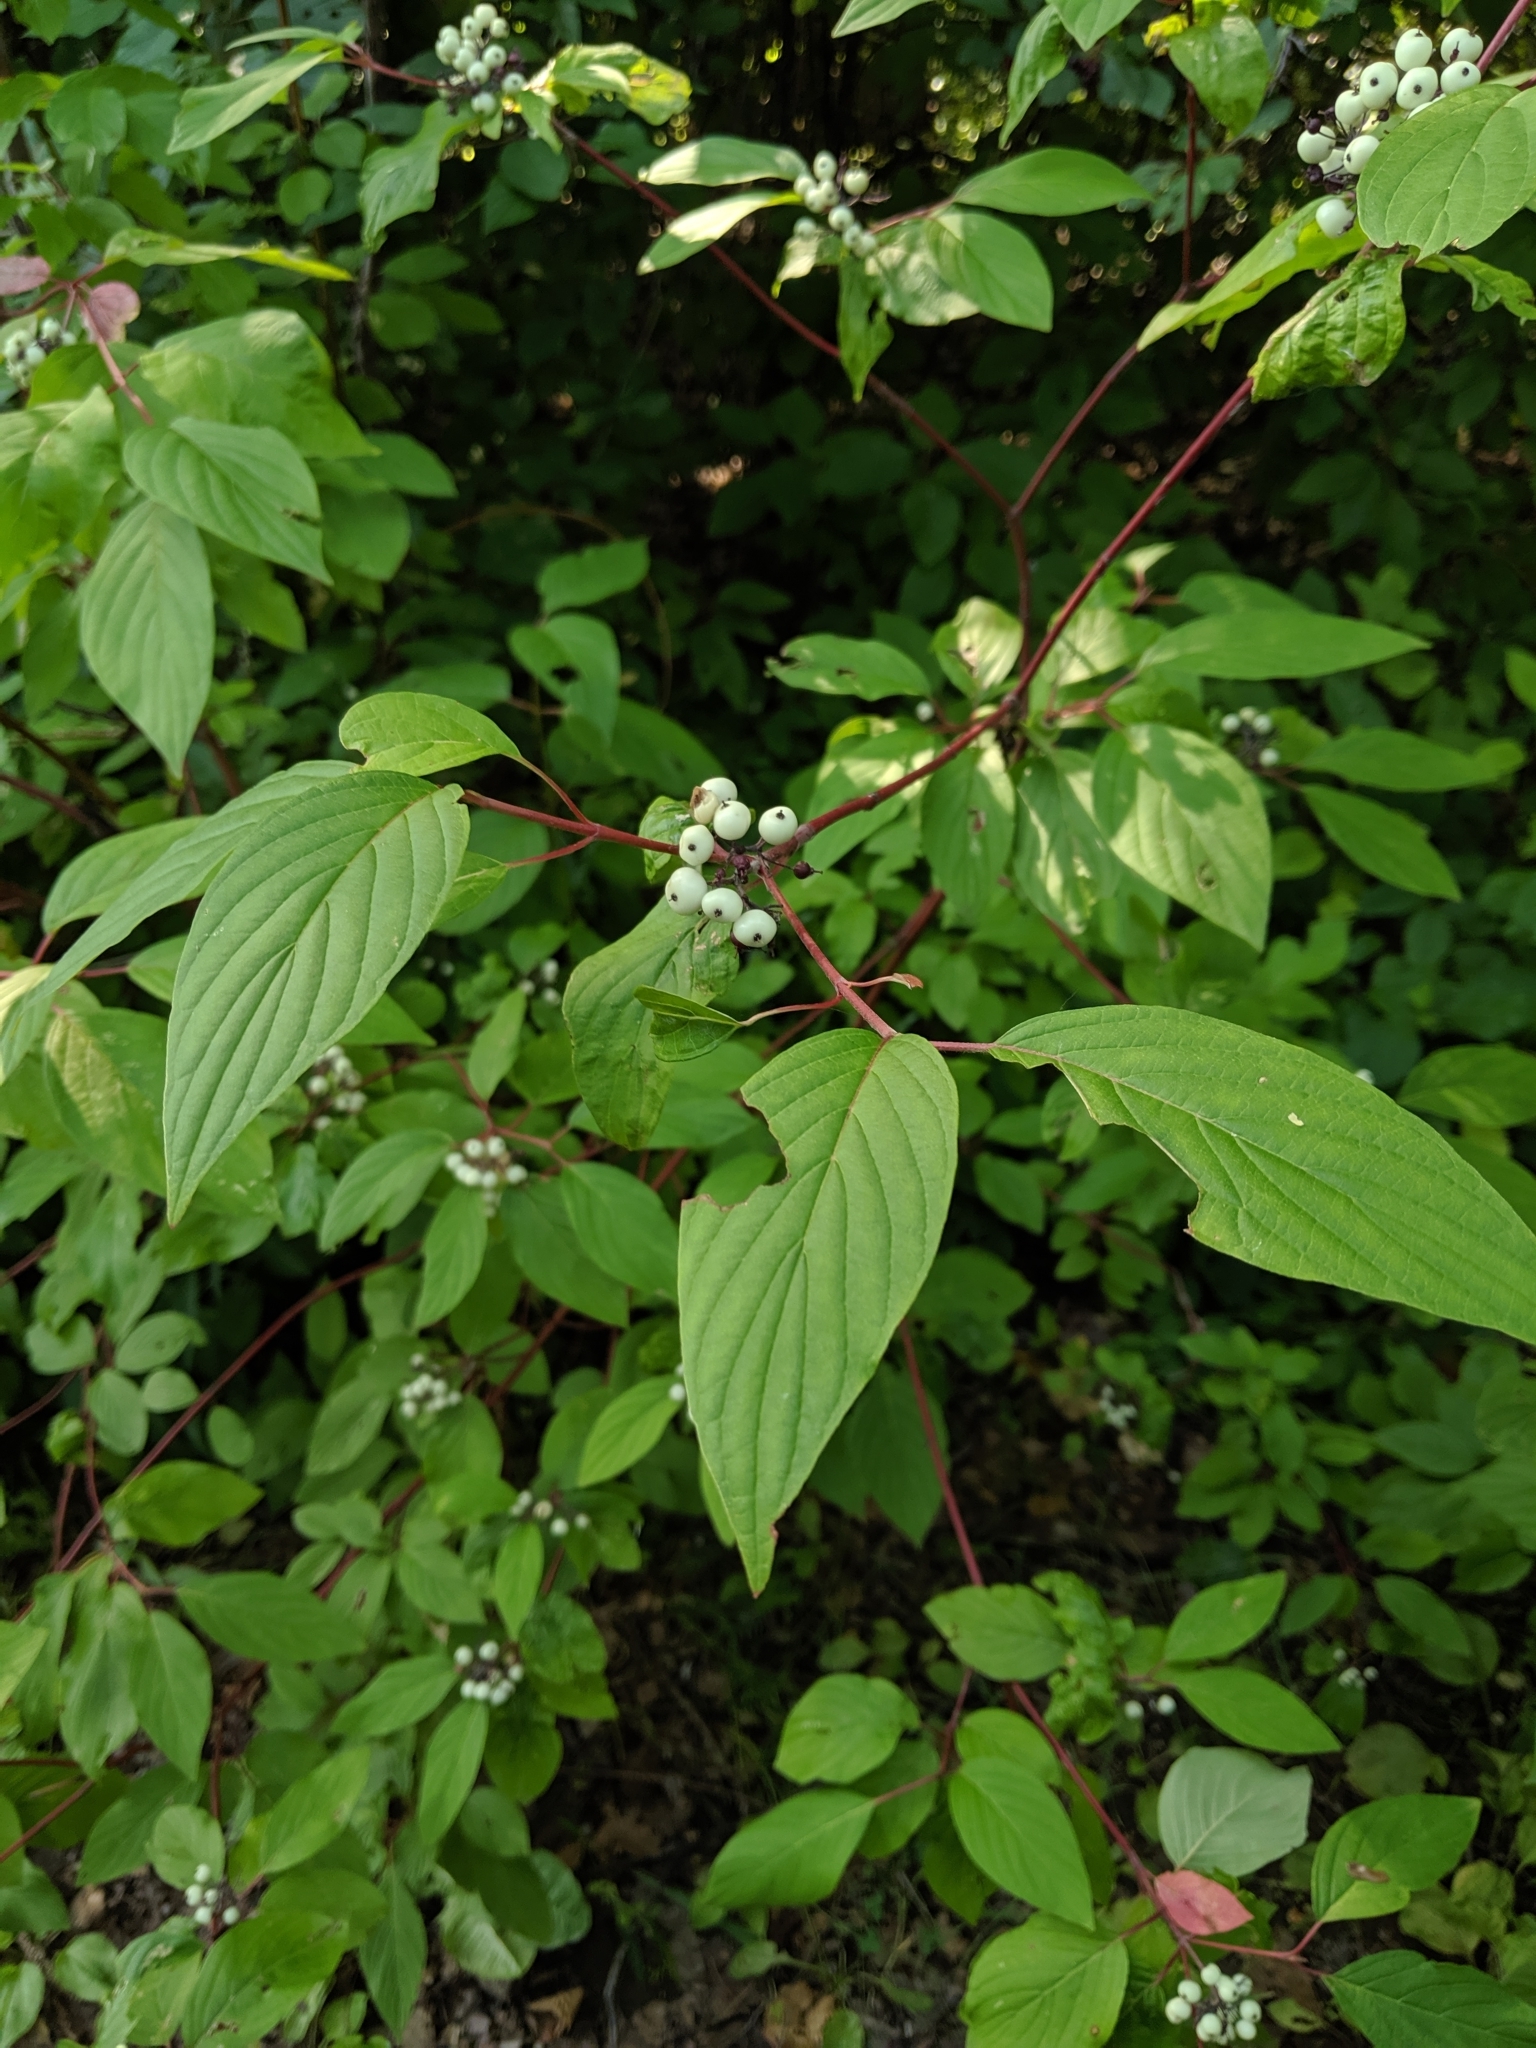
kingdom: Plantae
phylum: Tracheophyta
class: Magnoliopsida
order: Cornales
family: Cornaceae
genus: Cornus
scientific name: Cornus sericea
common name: Red-osier dogwood
